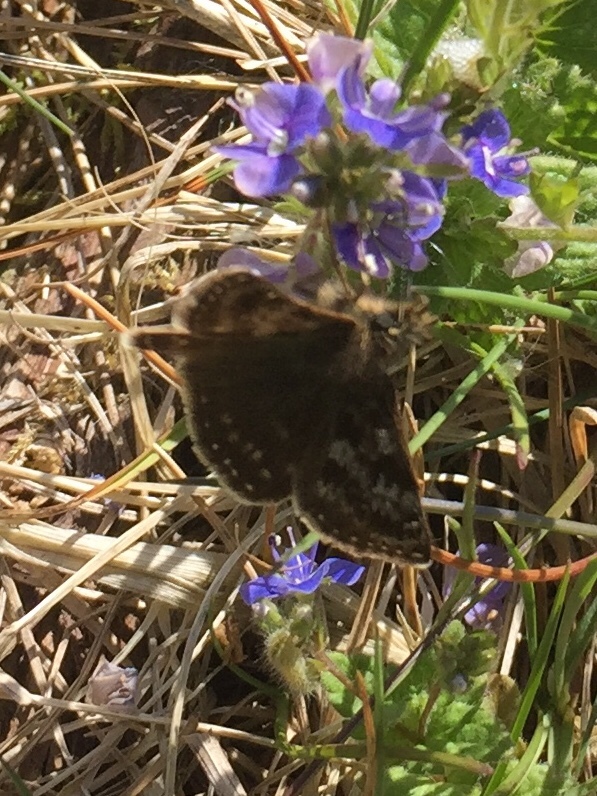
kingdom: Animalia
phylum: Arthropoda
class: Insecta
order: Lepidoptera
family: Hesperiidae
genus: Erynnis
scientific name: Erynnis tages
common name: Dingy skipper
